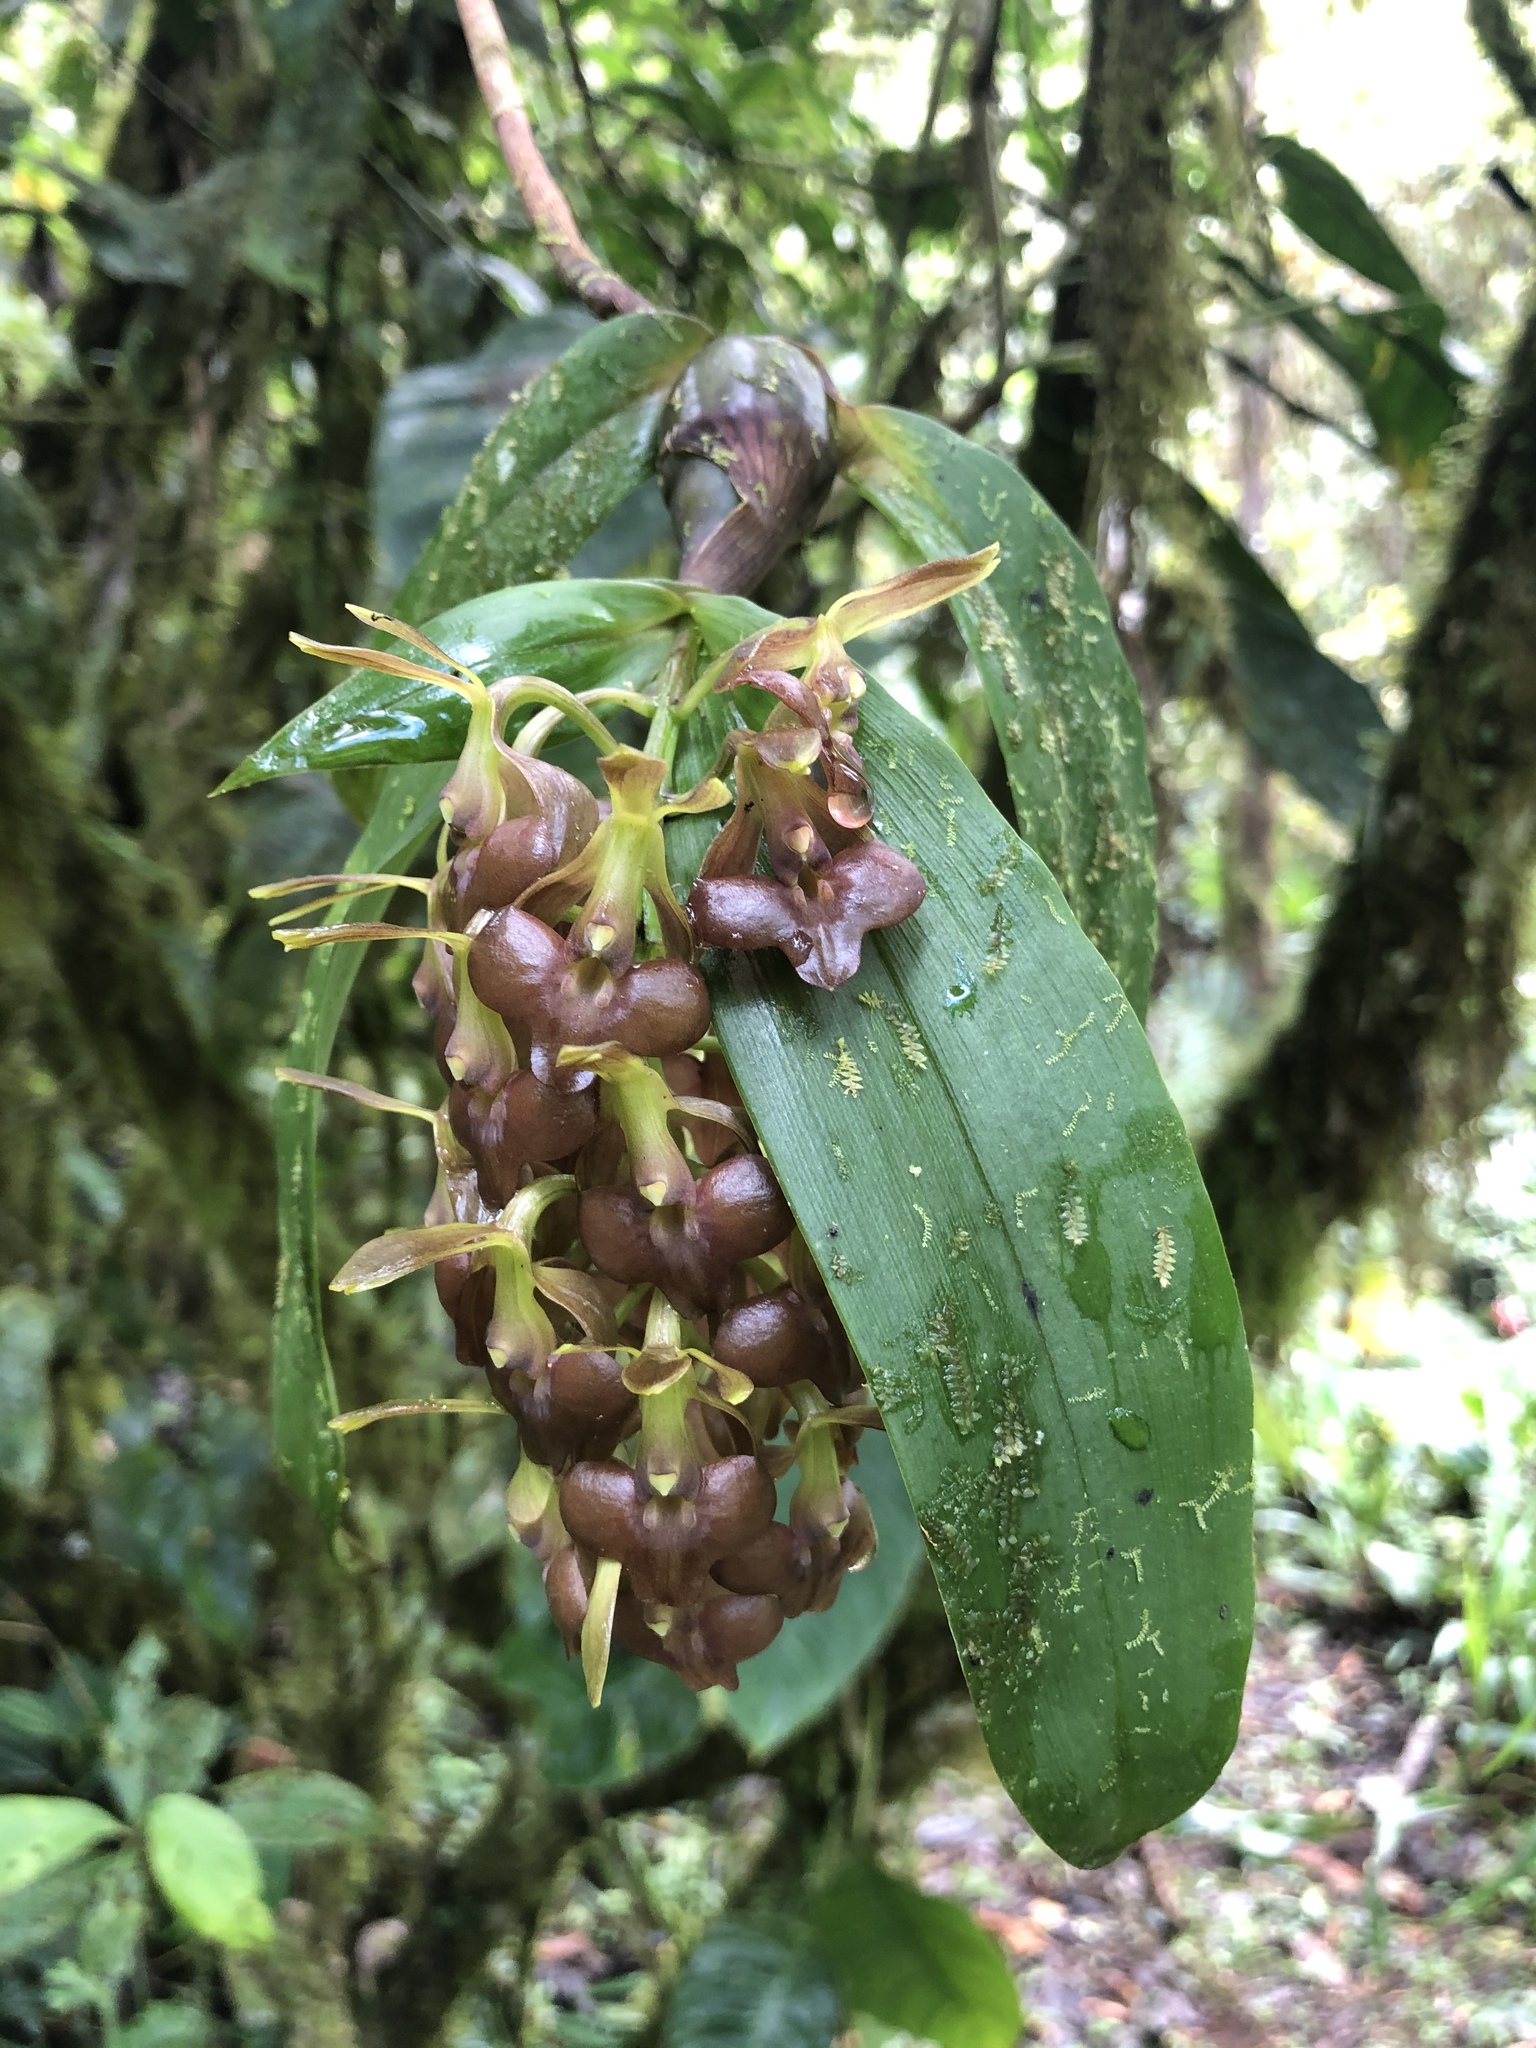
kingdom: Plantae
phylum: Tracheophyta
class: Liliopsida
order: Asparagales
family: Orchidaceae
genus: Epidendrum
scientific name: Epidendrum carchiense
